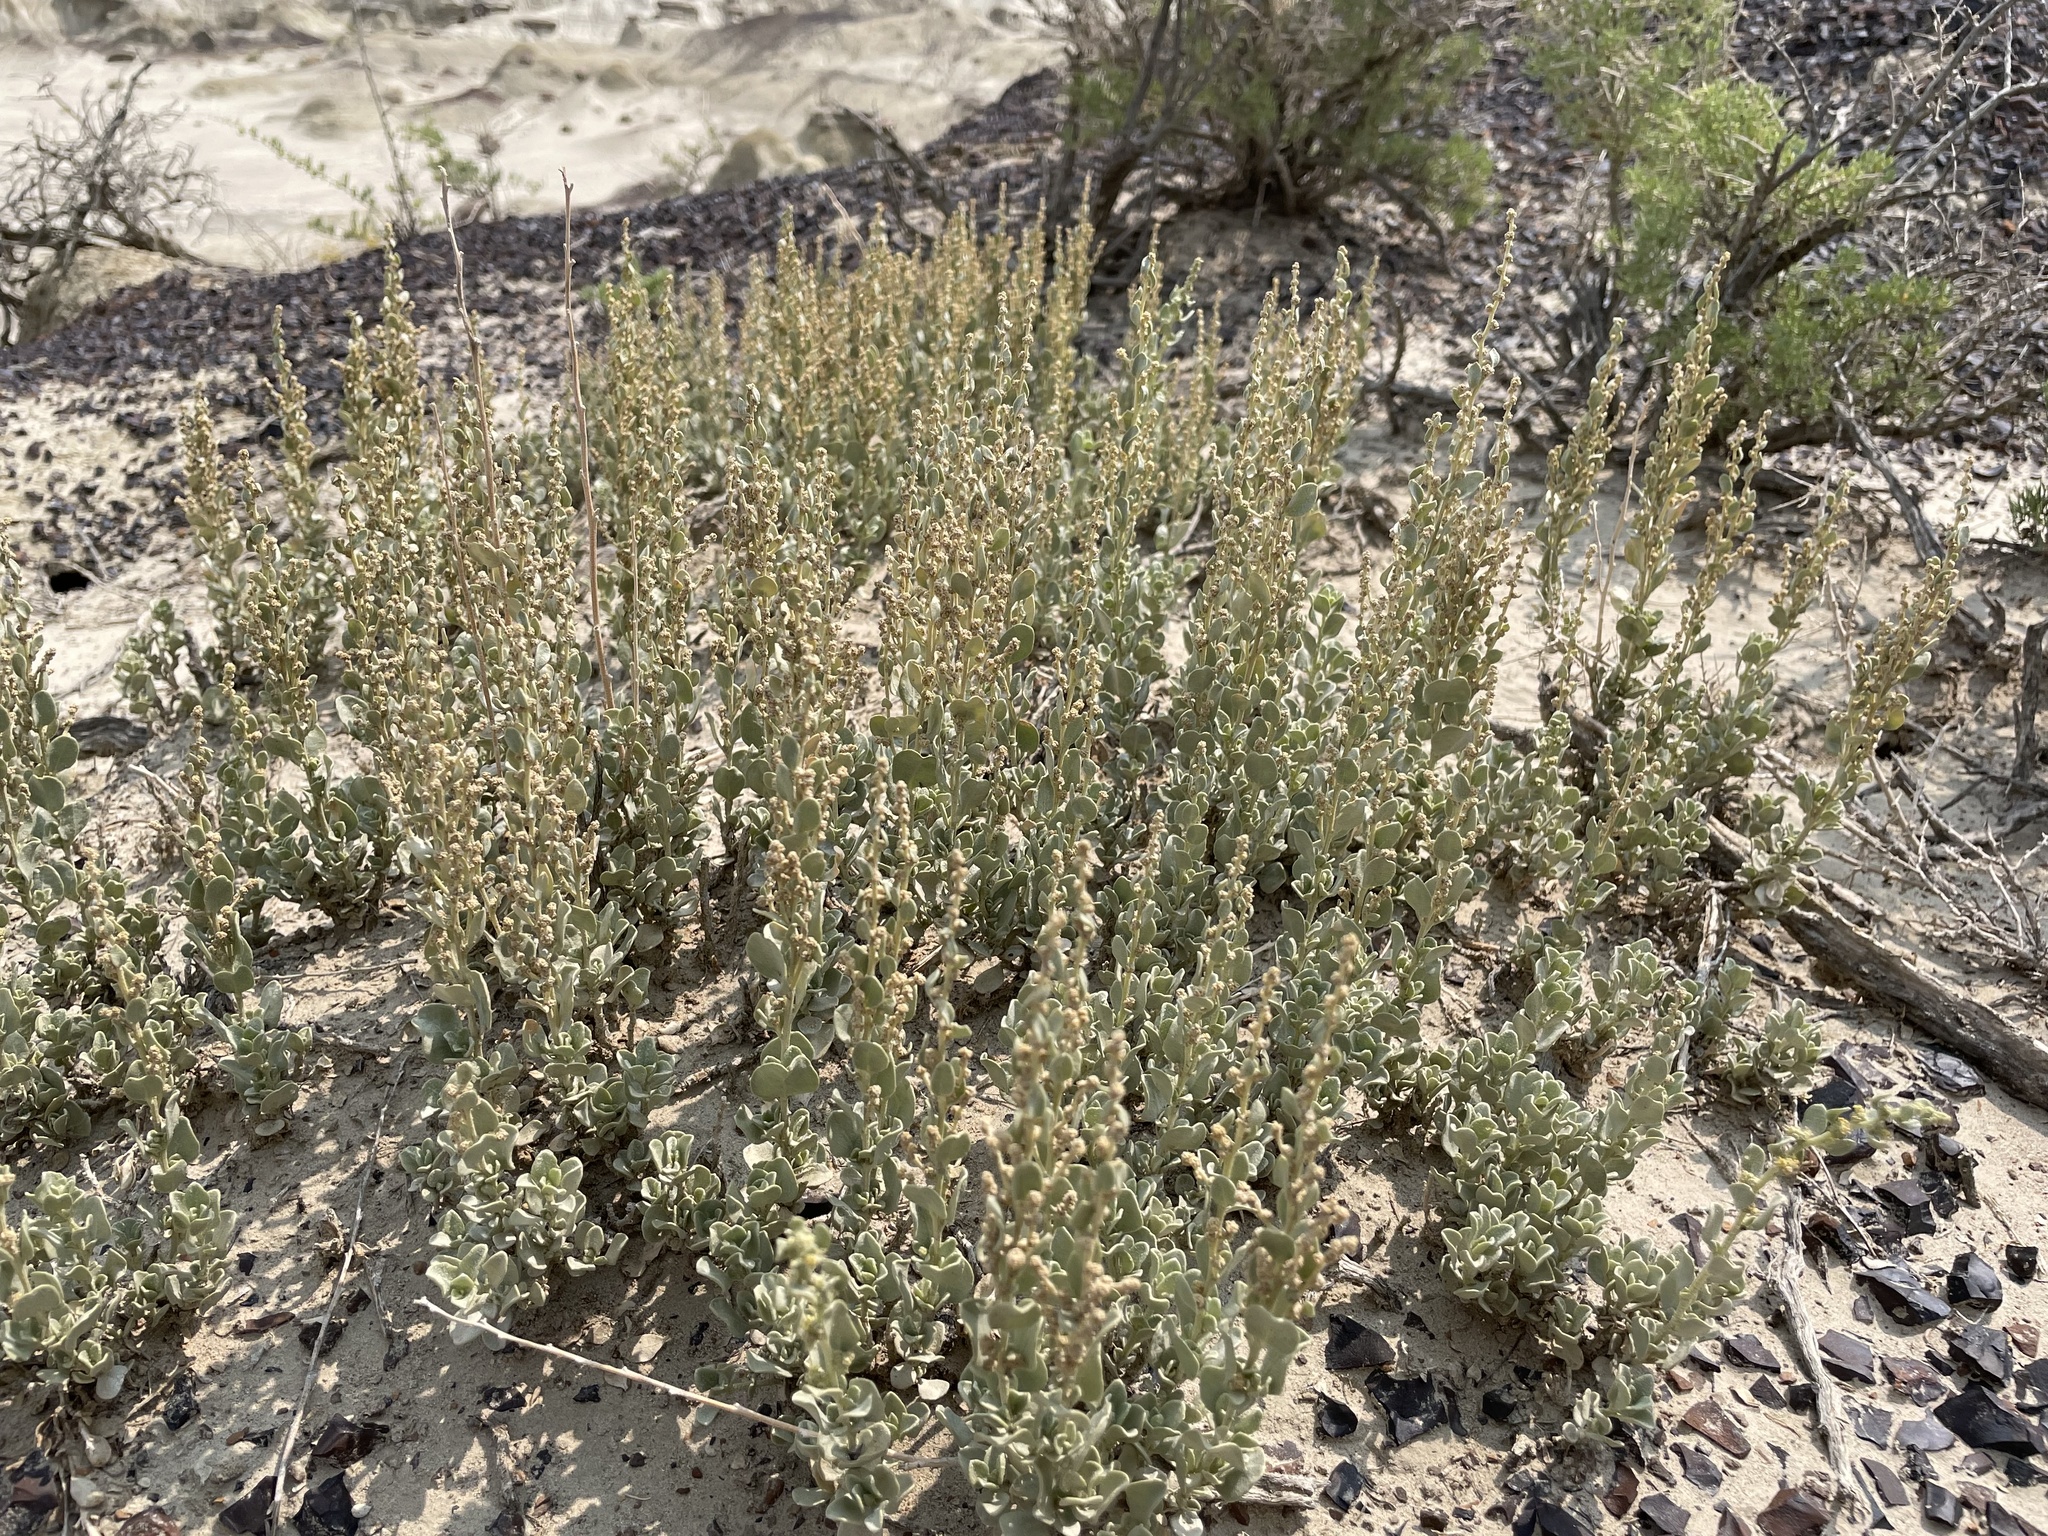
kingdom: Plantae
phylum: Tracheophyta
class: Magnoliopsida
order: Caryophyllales
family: Amaranthaceae
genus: Atriplex
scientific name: Atriplex obovata
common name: New mexico saltbush
